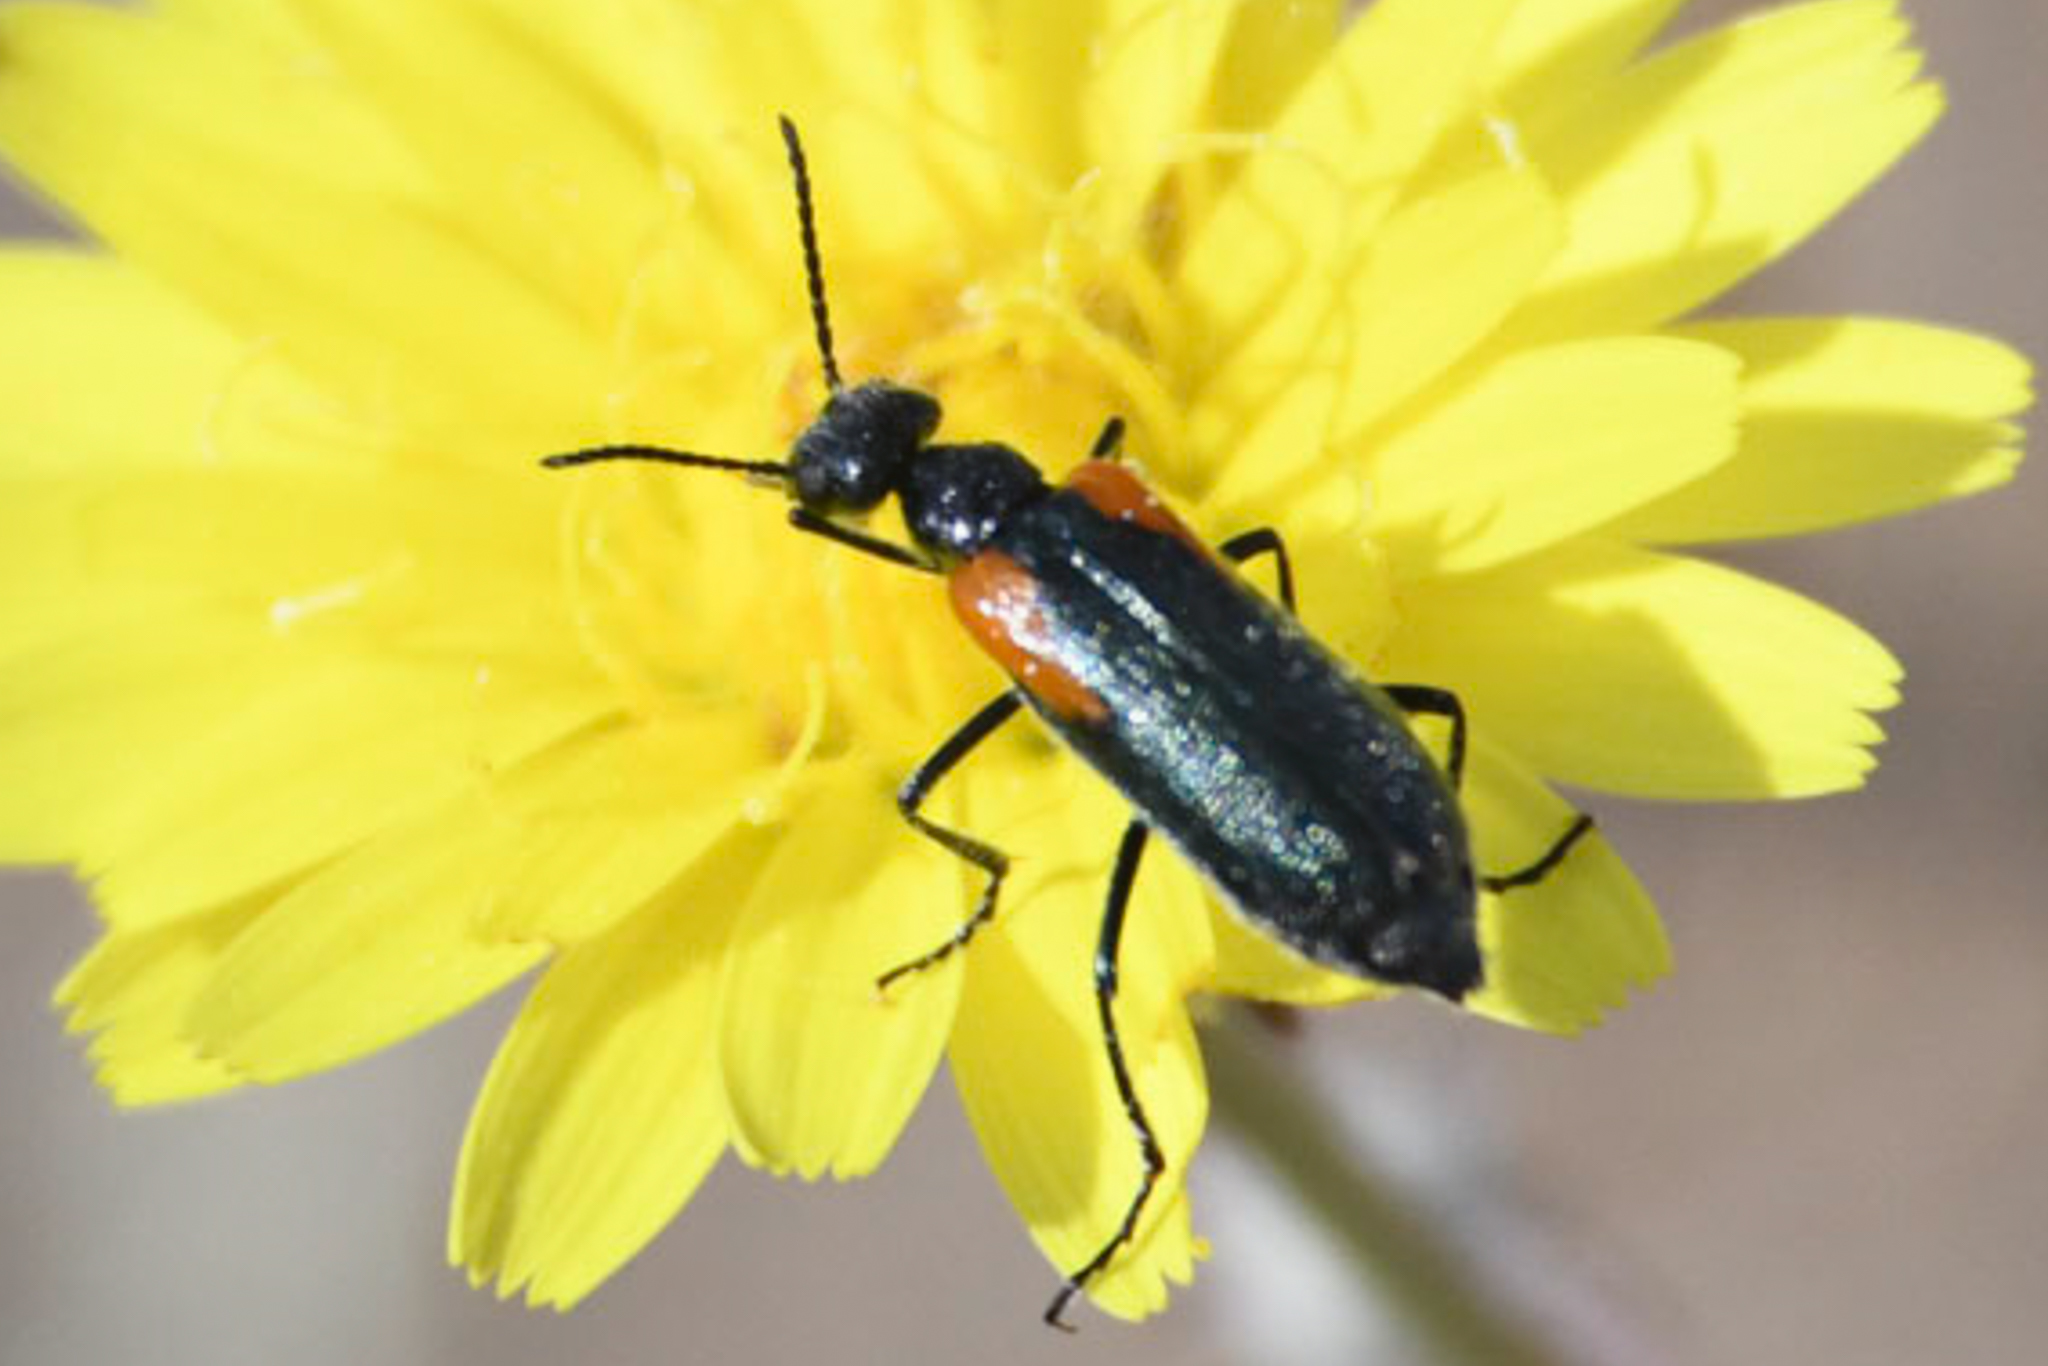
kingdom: Animalia
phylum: Arthropoda
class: Insecta
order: Coleoptera
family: Meloidae
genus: Eupompha
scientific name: Eupompha elegans
